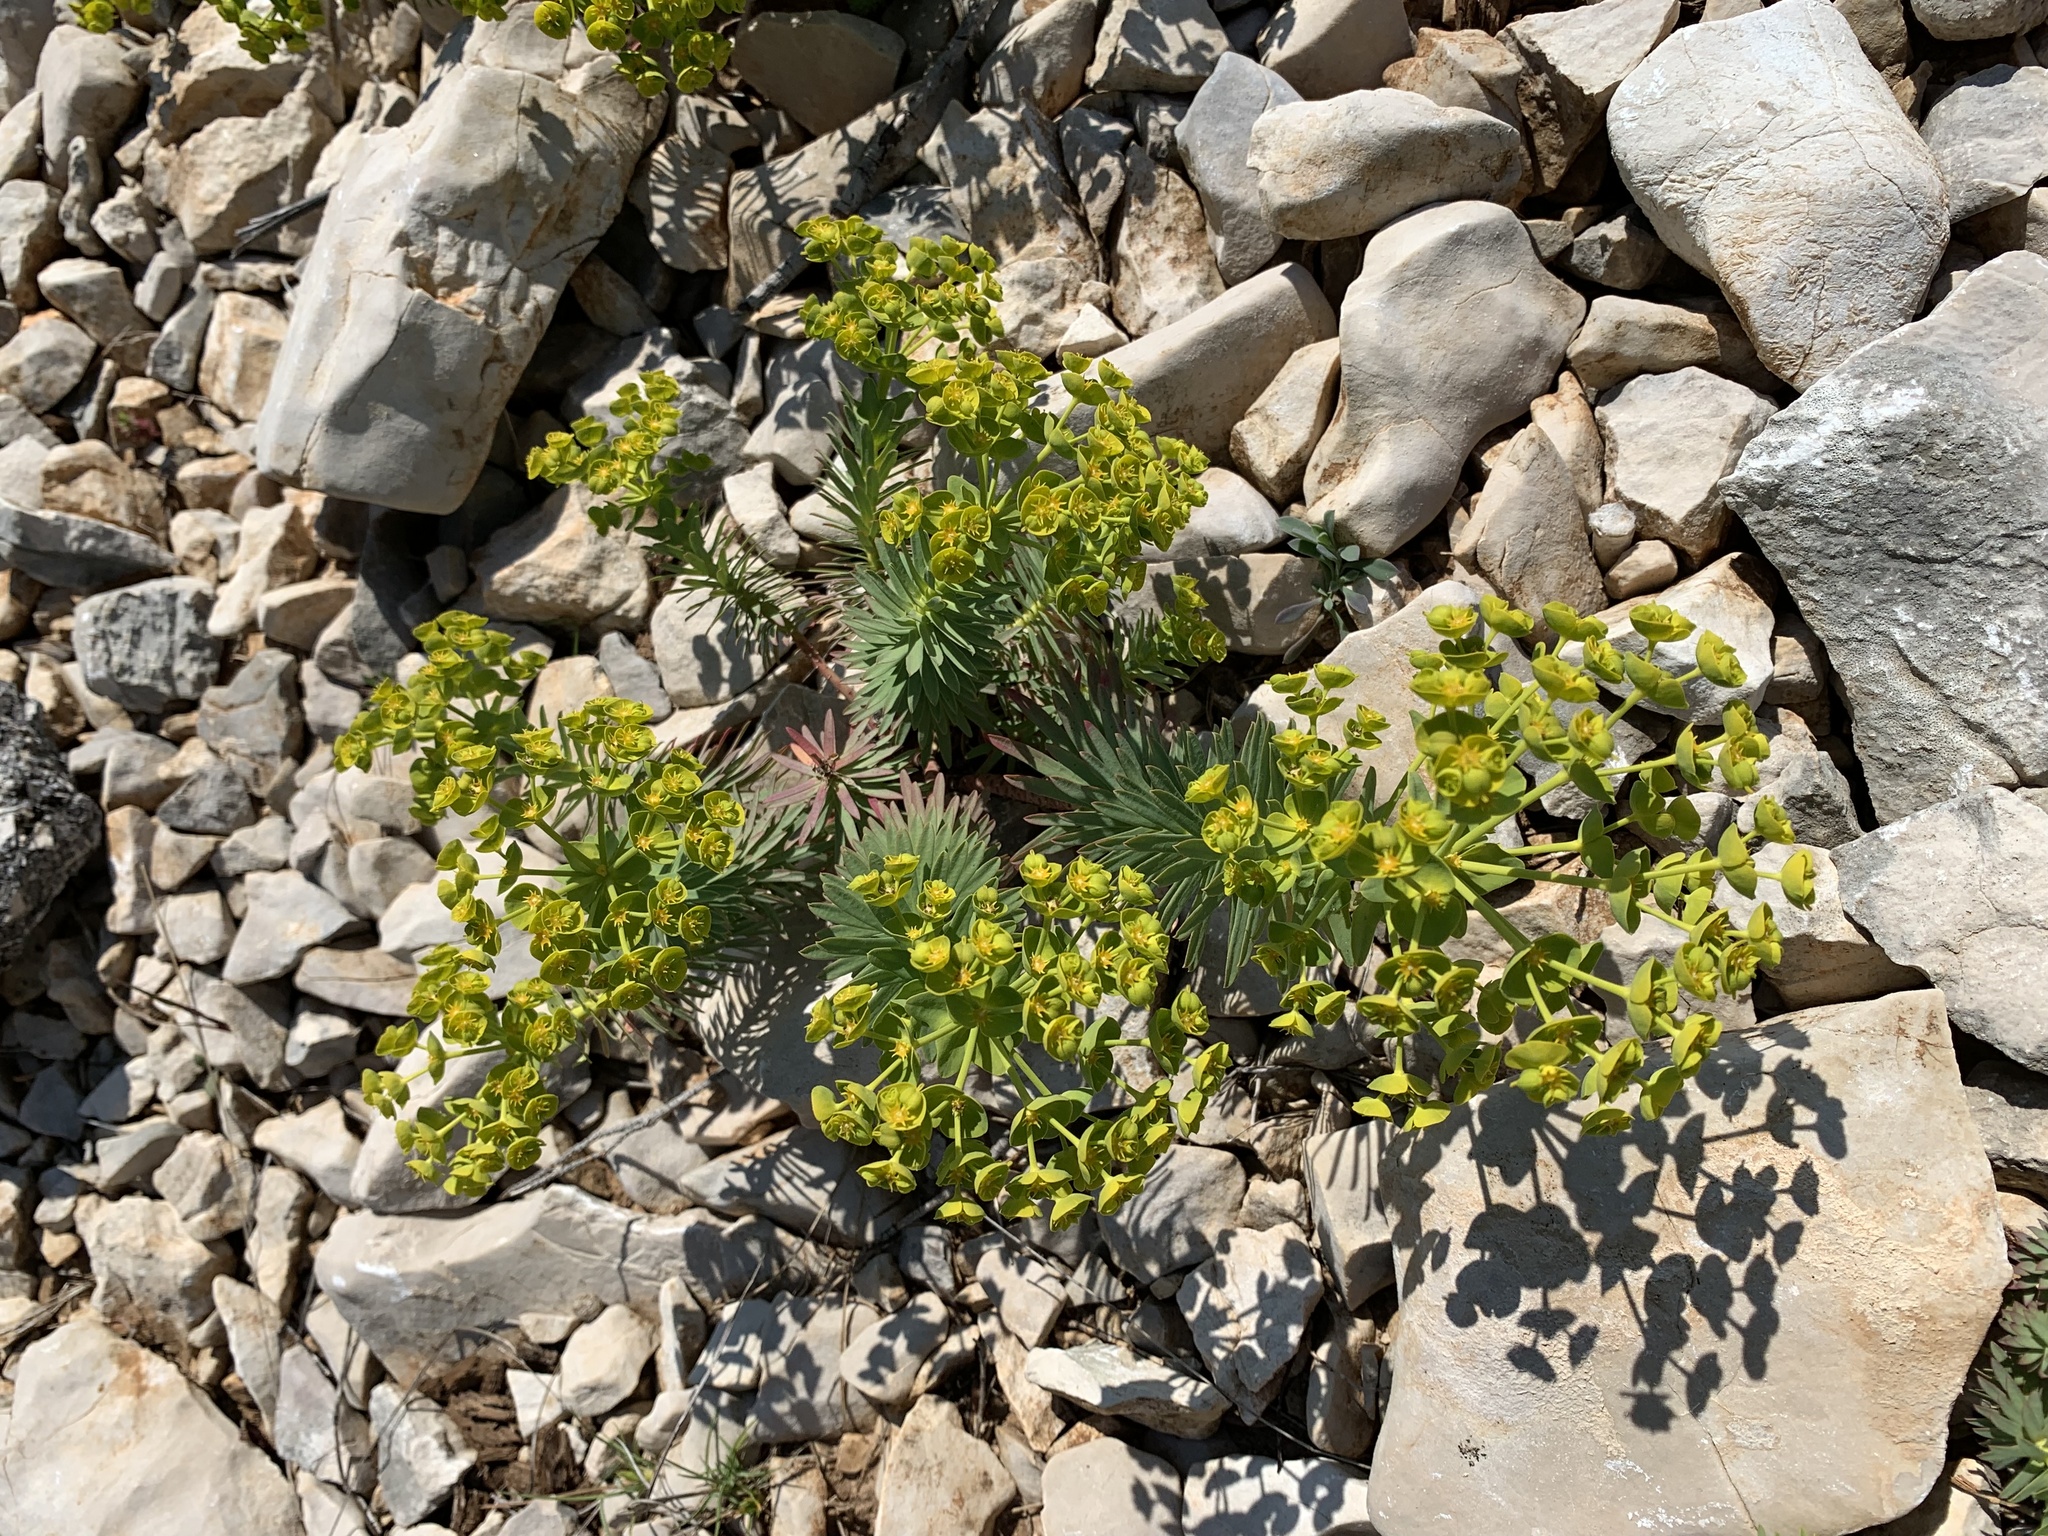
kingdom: Plantae
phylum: Tracheophyta
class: Magnoliopsida
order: Malpighiales
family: Euphorbiaceae
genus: Euphorbia
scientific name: Euphorbia segetalis
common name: Corn spurge
